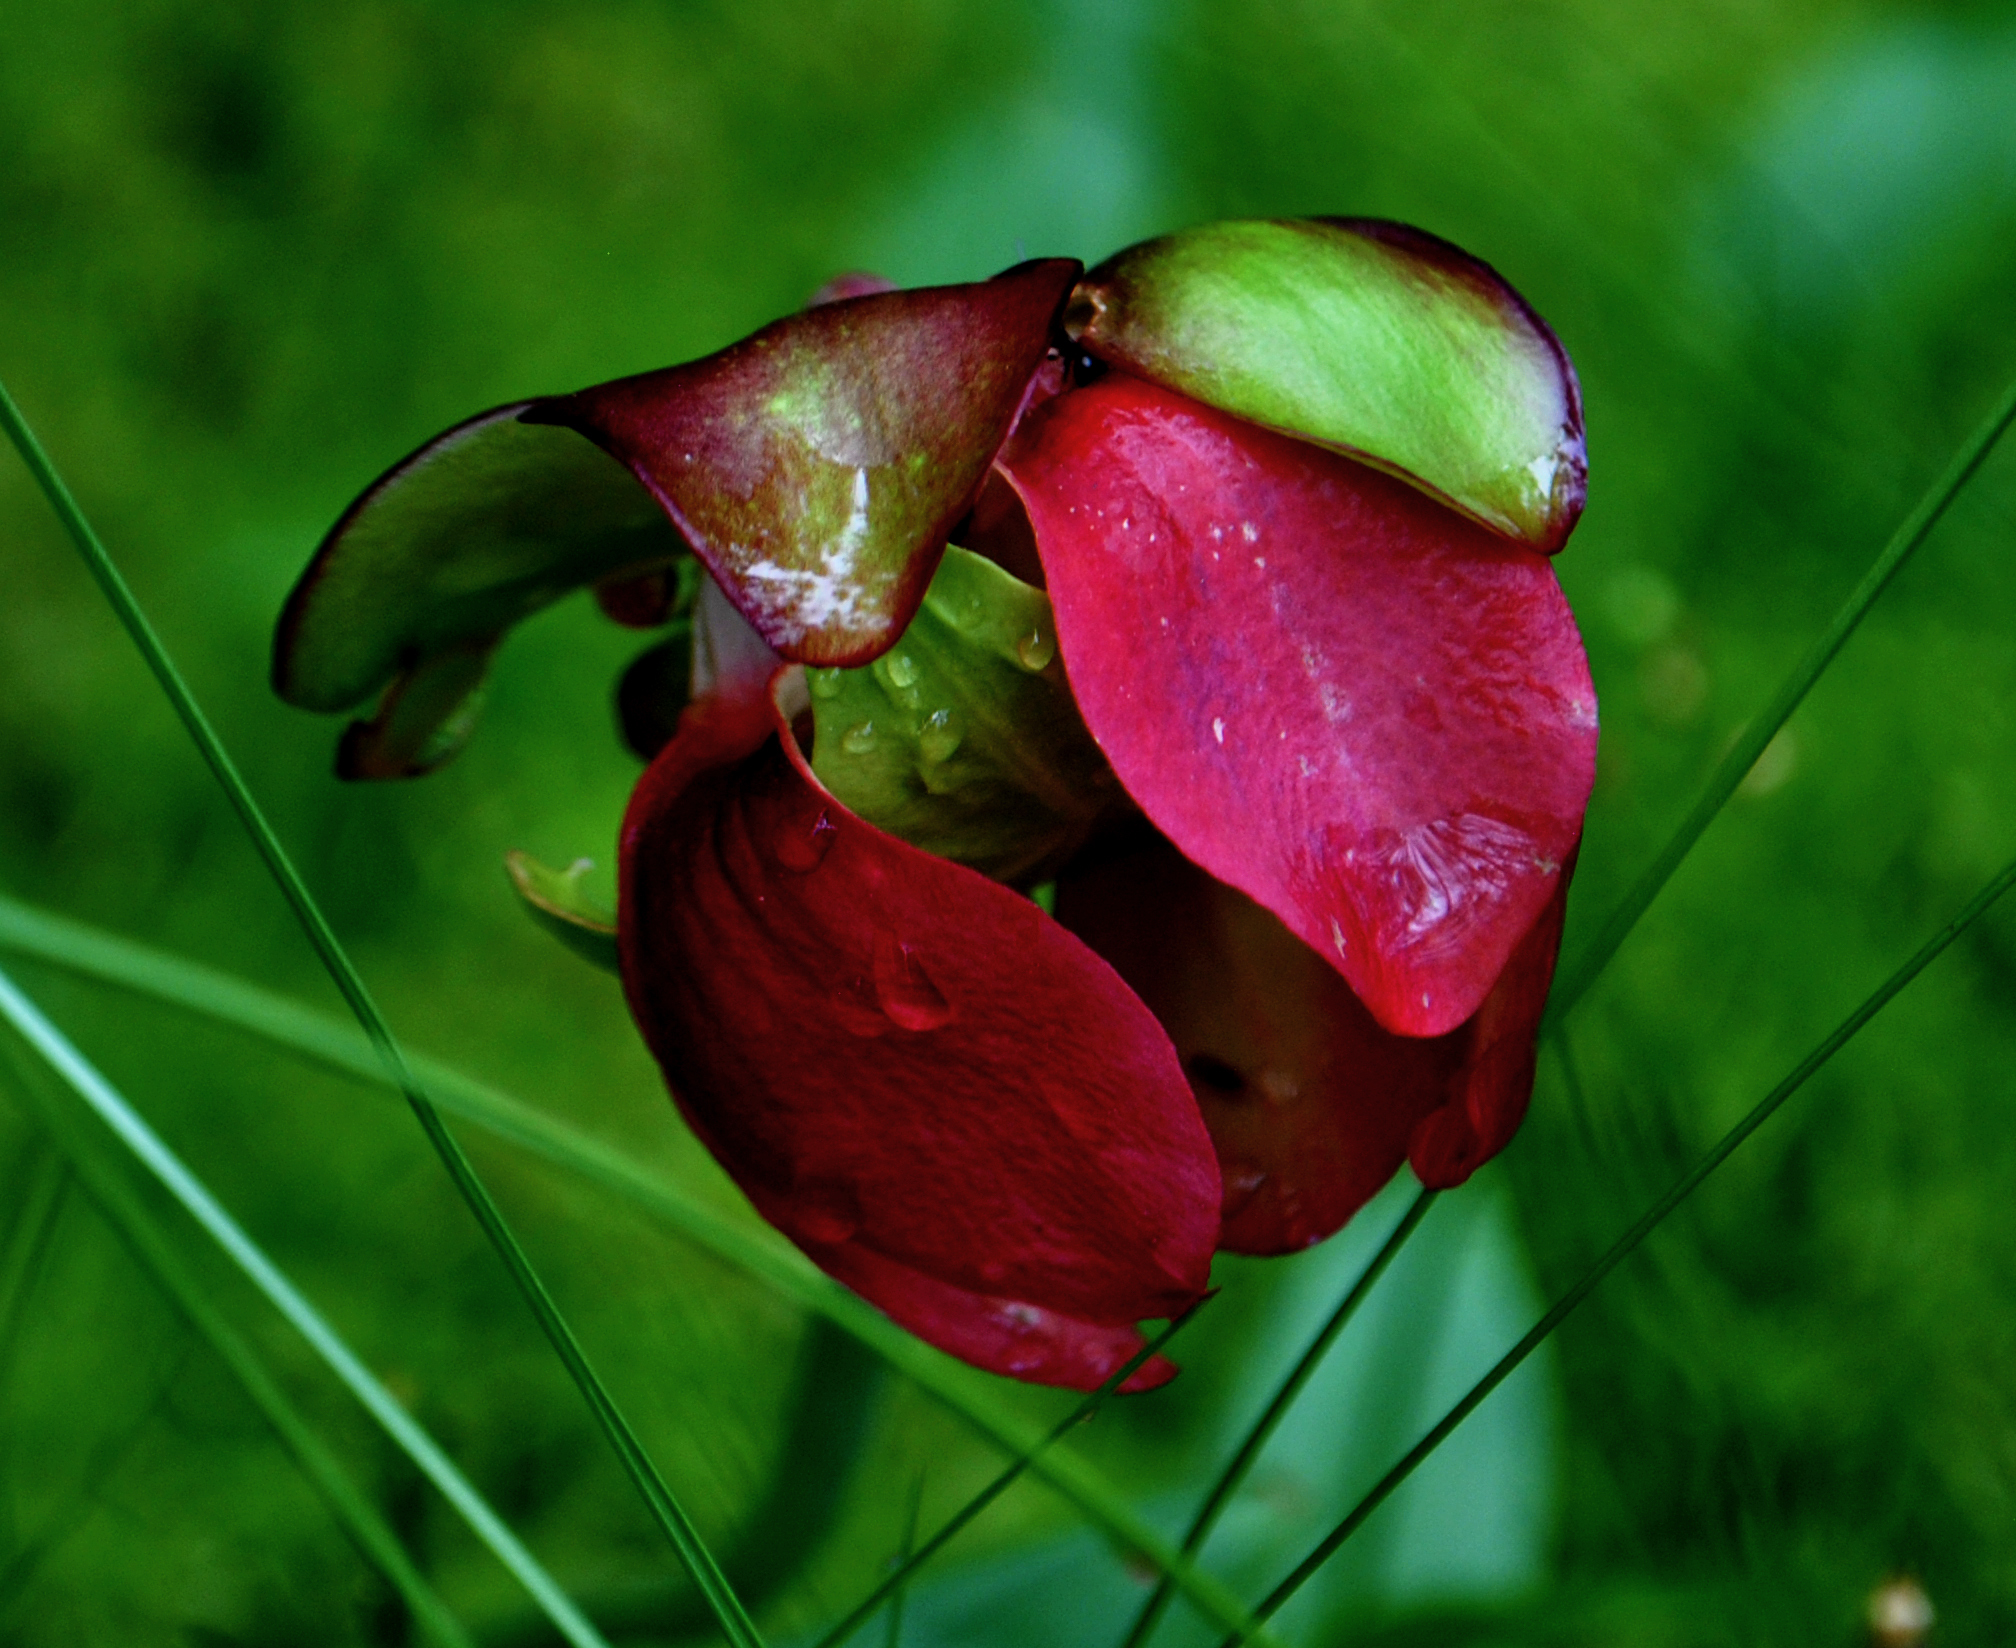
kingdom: Plantae
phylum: Tracheophyta
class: Magnoliopsida
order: Ericales
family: Sarraceniaceae
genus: Sarracenia
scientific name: Sarracenia purpurea
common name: Pitcherplant
